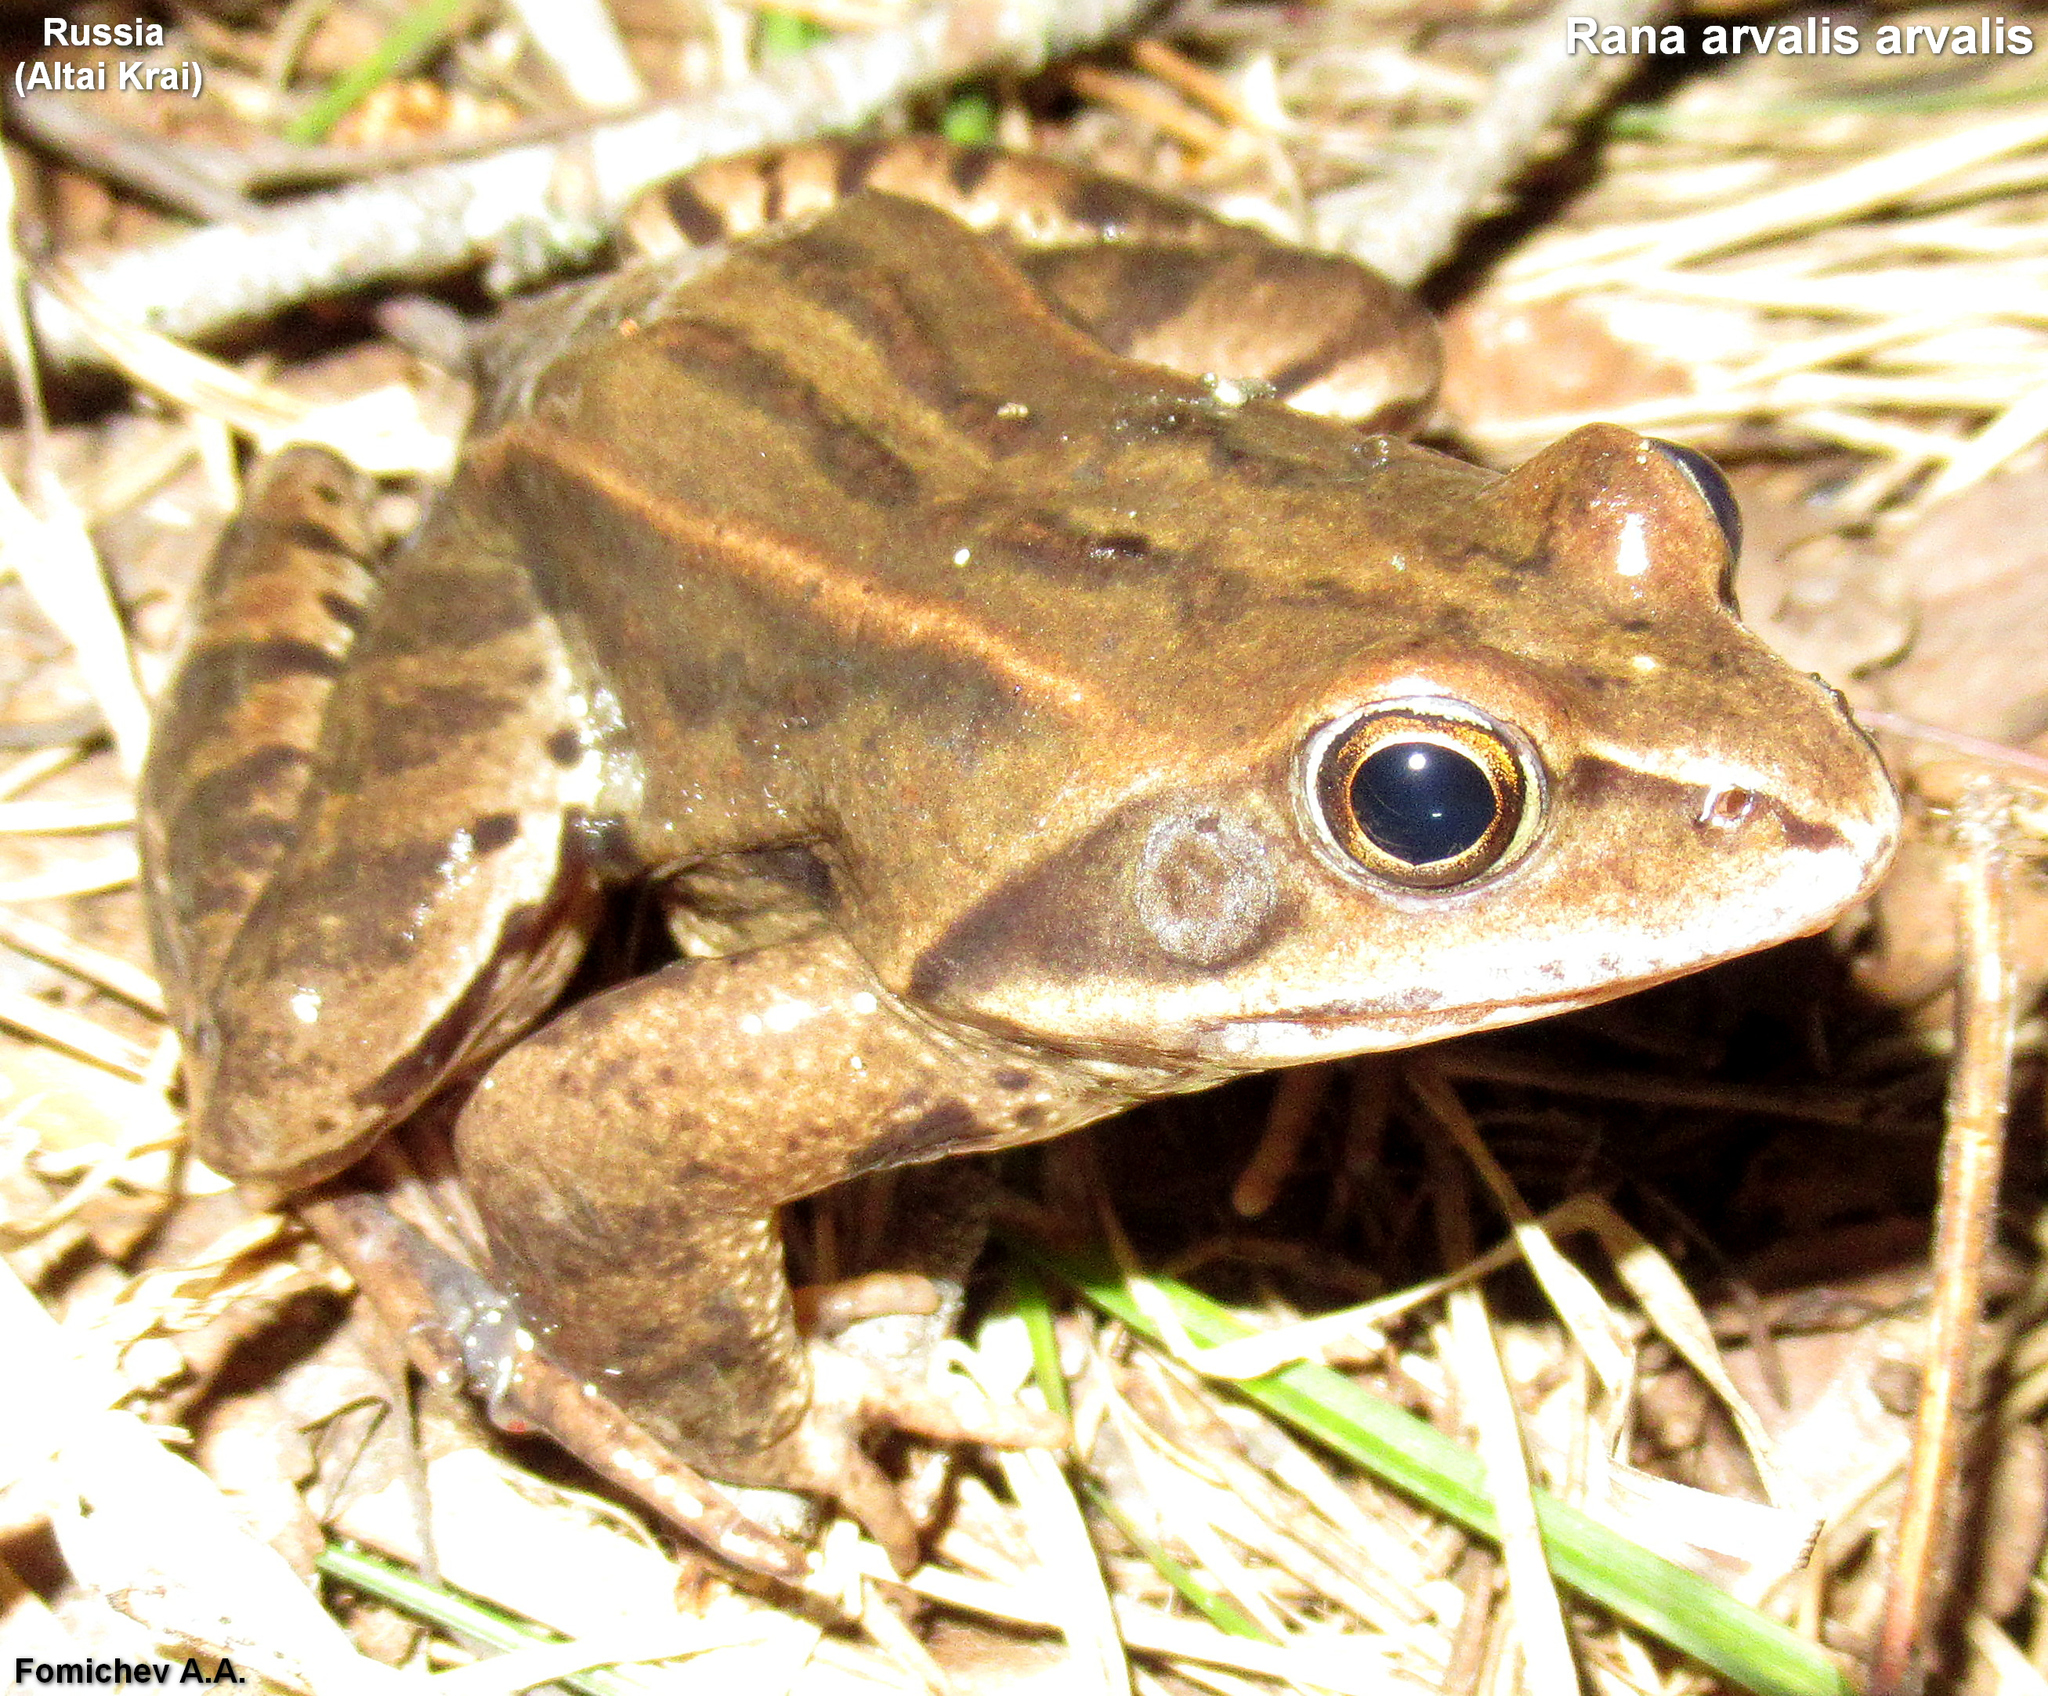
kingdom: Animalia
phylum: Chordata
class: Amphibia
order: Anura
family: Ranidae
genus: Rana
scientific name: Rana arvalis
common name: Moor frog
